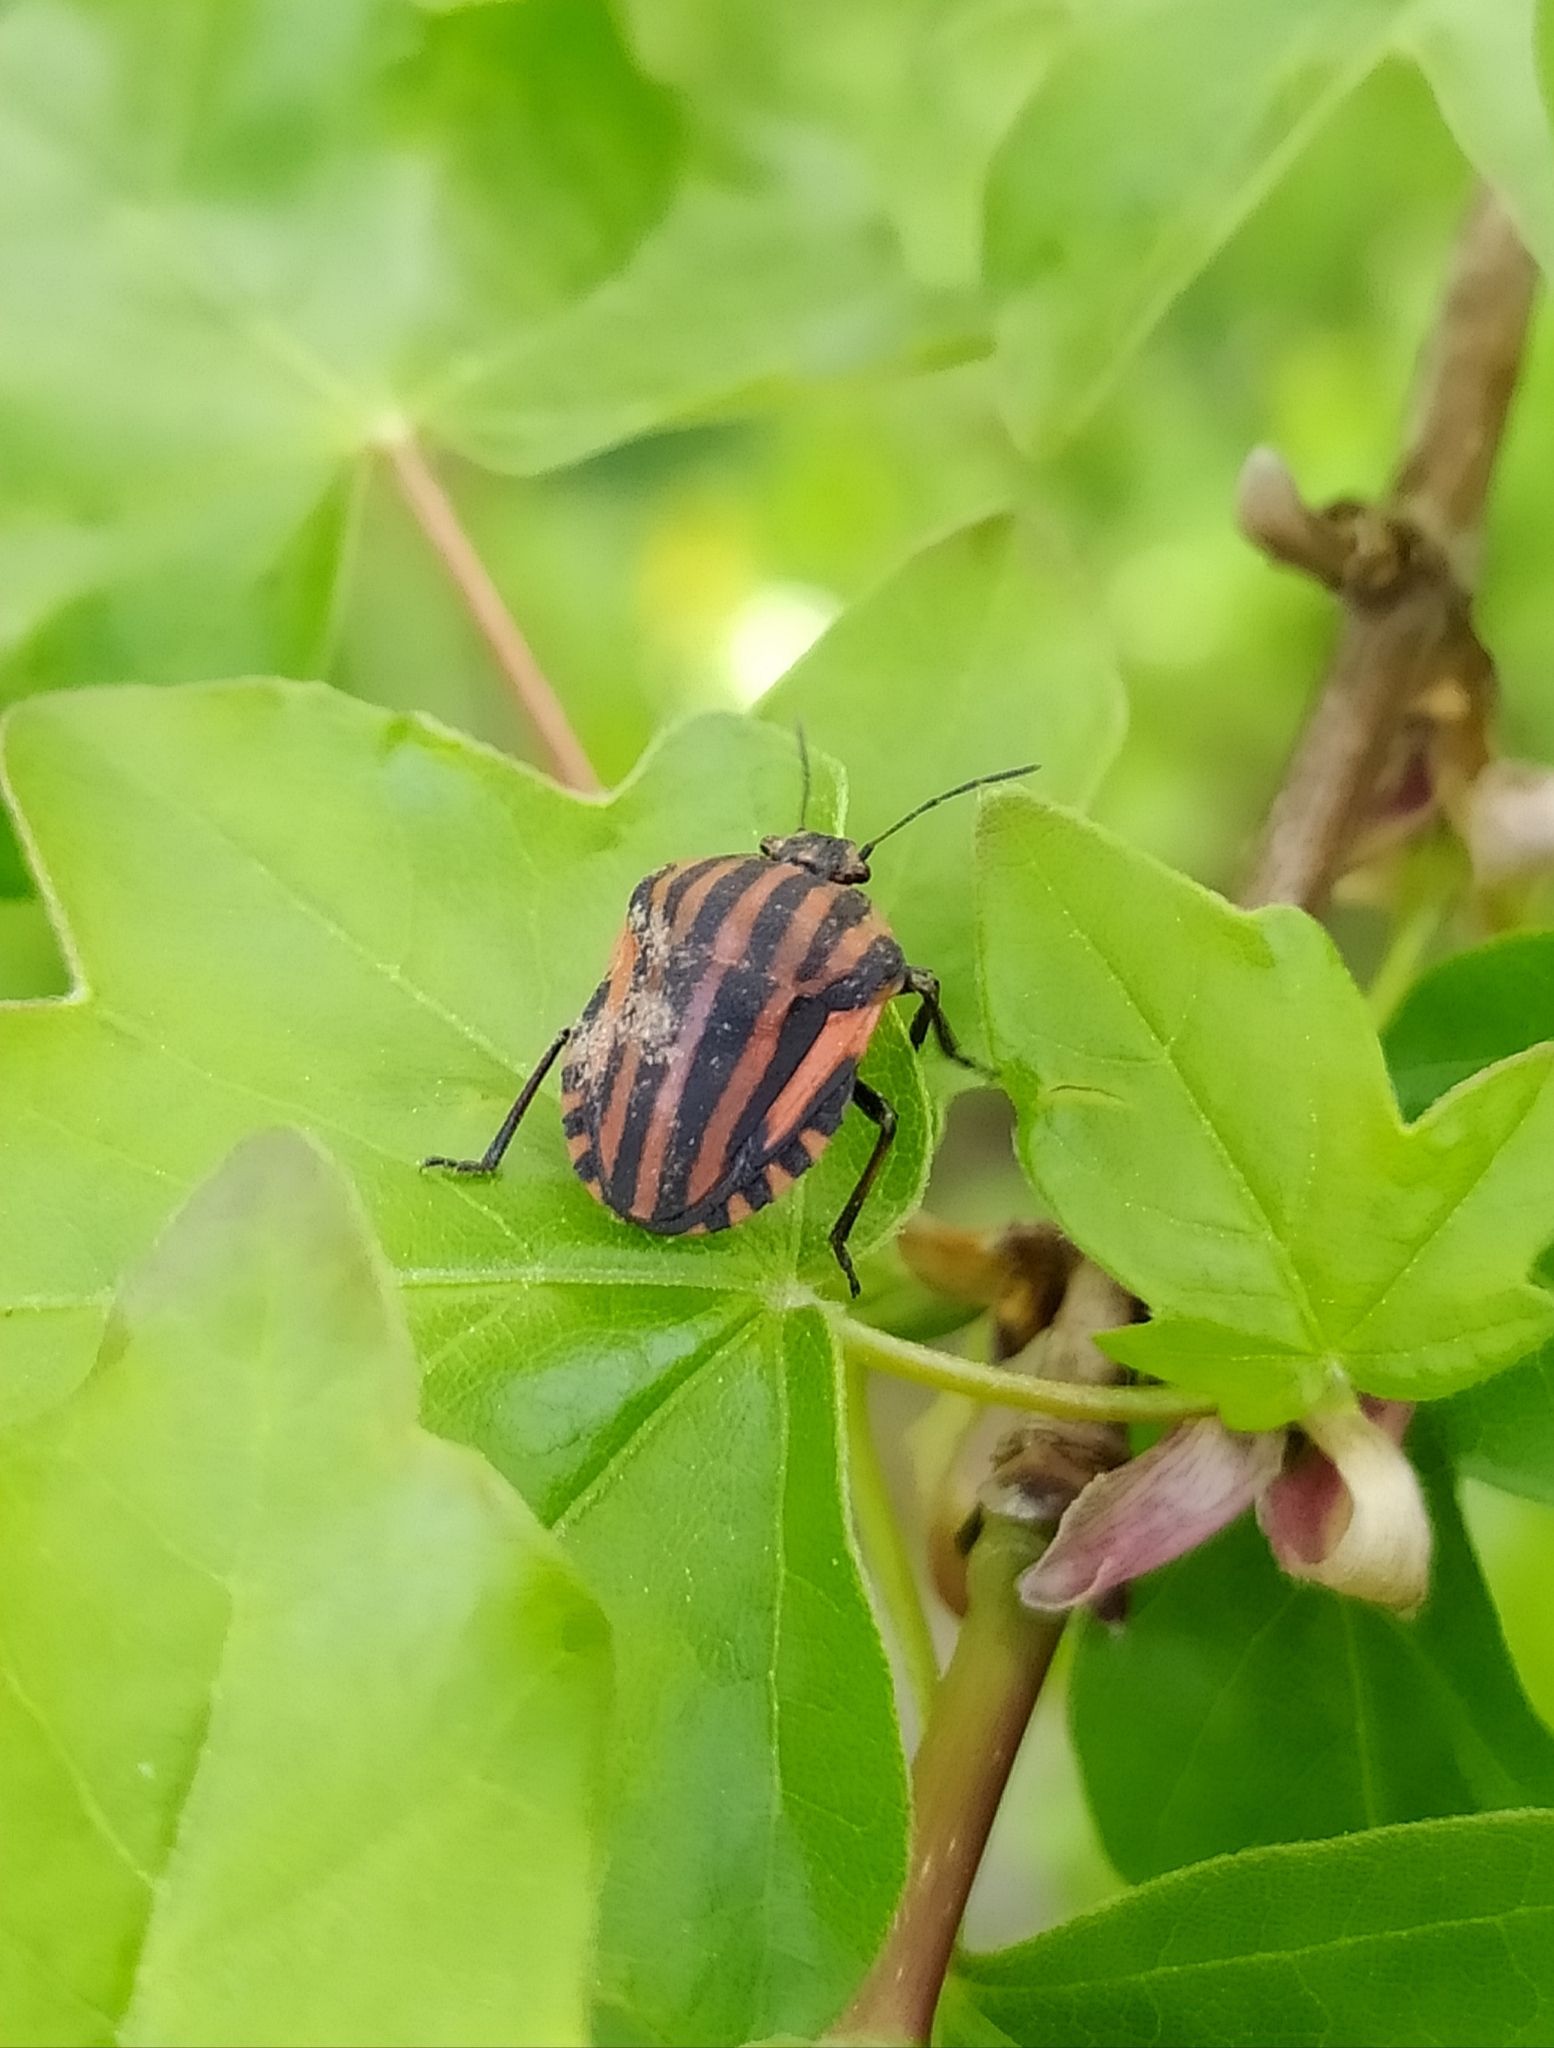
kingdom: Animalia
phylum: Arthropoda
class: Insecta
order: Hemiptera
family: Pentatomidae
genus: Graphosoma
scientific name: Graphosoma italicum
